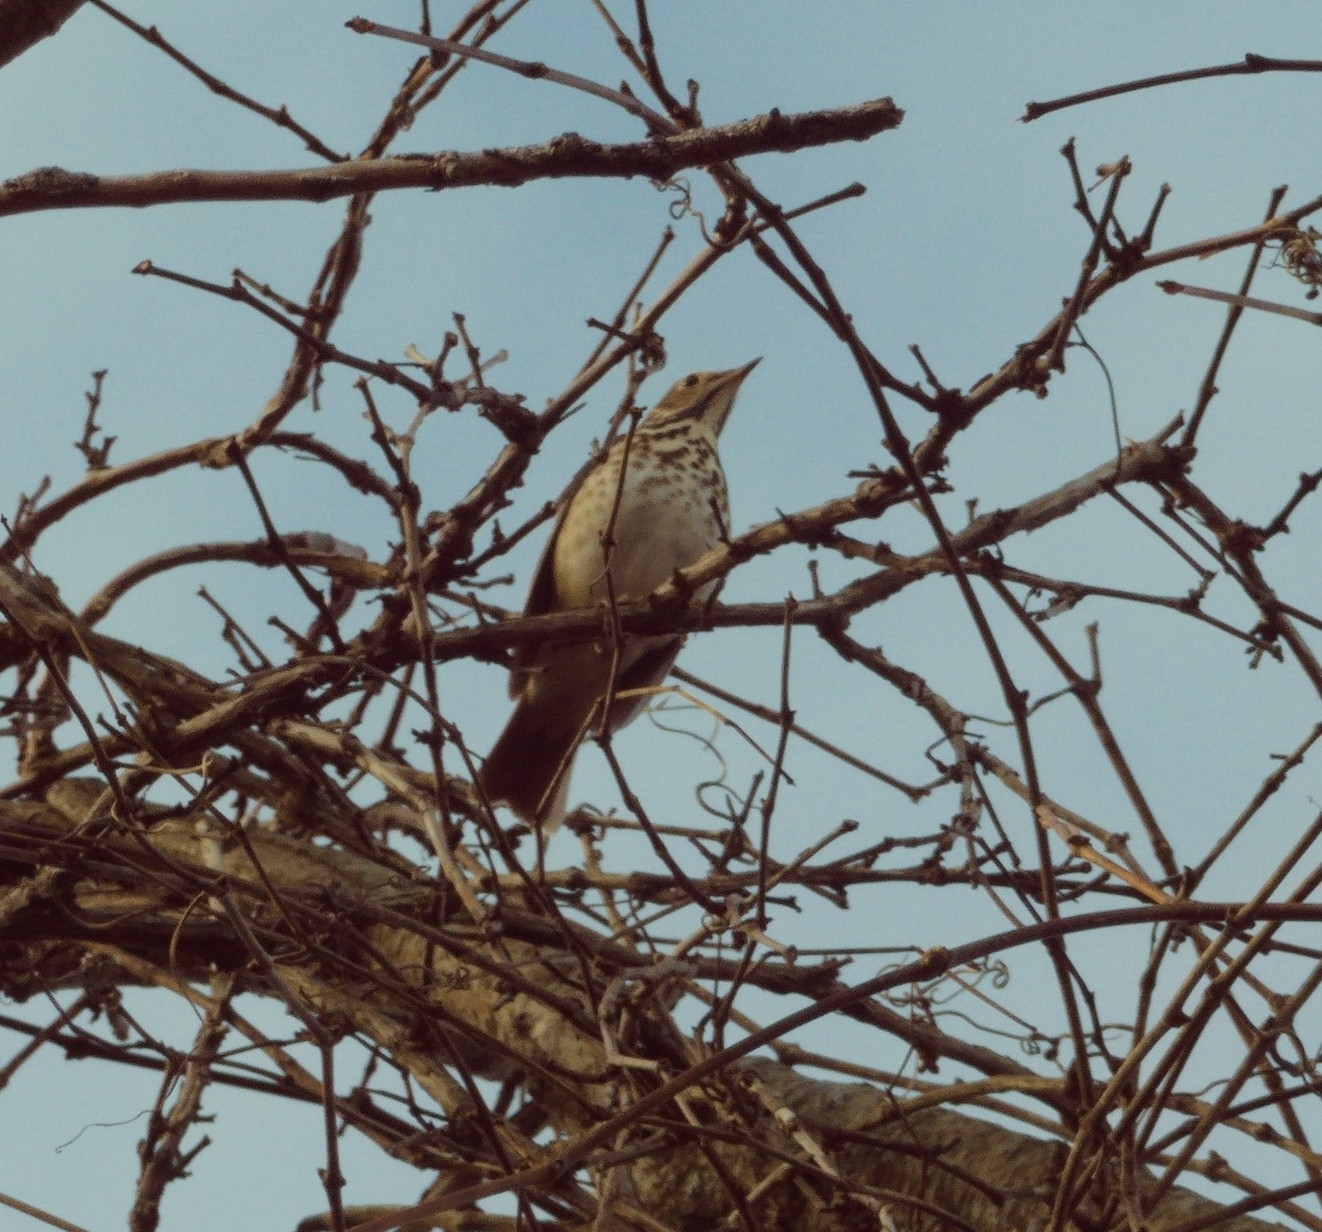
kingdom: Animalia
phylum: Chordata
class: Aves
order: Passeriformes
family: Turdidae
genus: Catharus
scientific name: Catharus guttatus
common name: Hermit thrush
